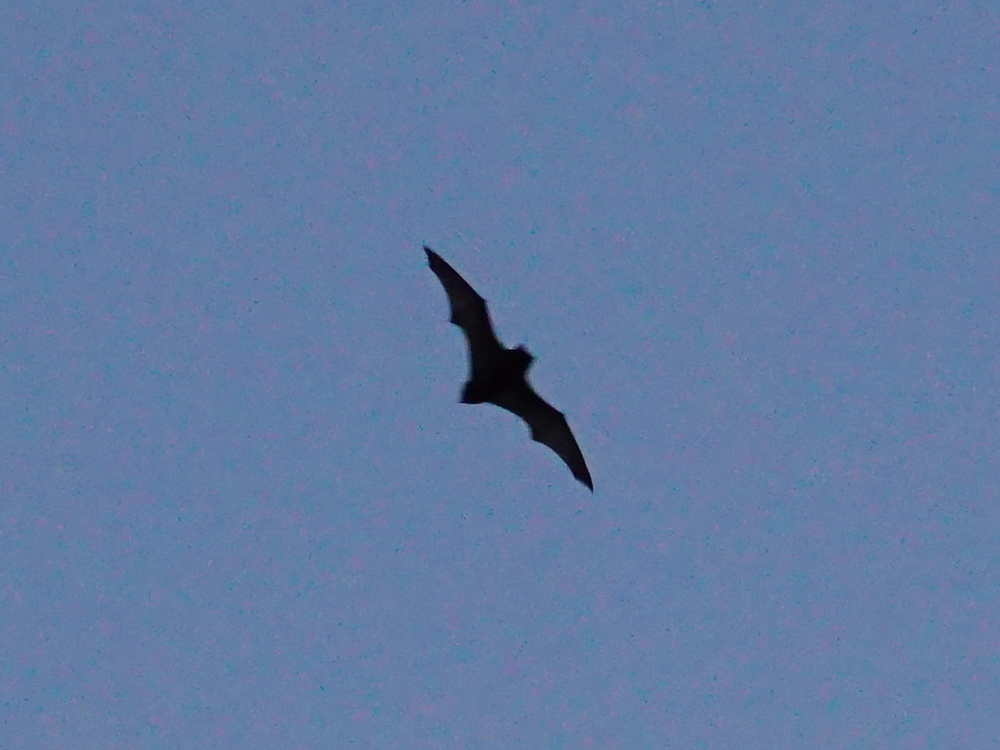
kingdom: Animalia
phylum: Chordata
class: Mammalia
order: Chiroptera
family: Vespertilionidae
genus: Nyctalus
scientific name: Nyctalus noctula
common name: Noctule
